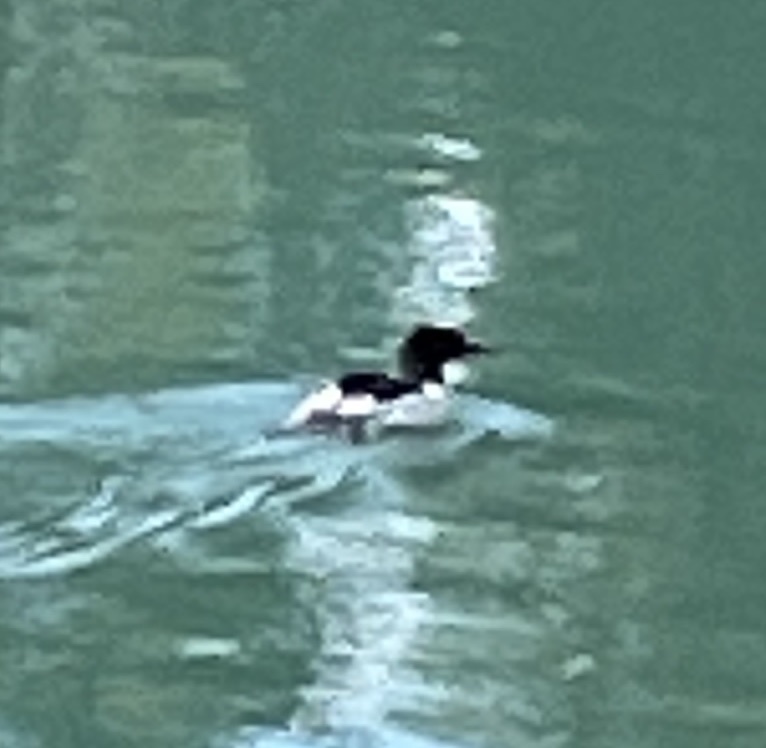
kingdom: Animalia
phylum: Chordata
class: Aves
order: Anseriformes
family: Anatidae
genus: Mergus
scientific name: Mergus merganser
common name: Common merganser
